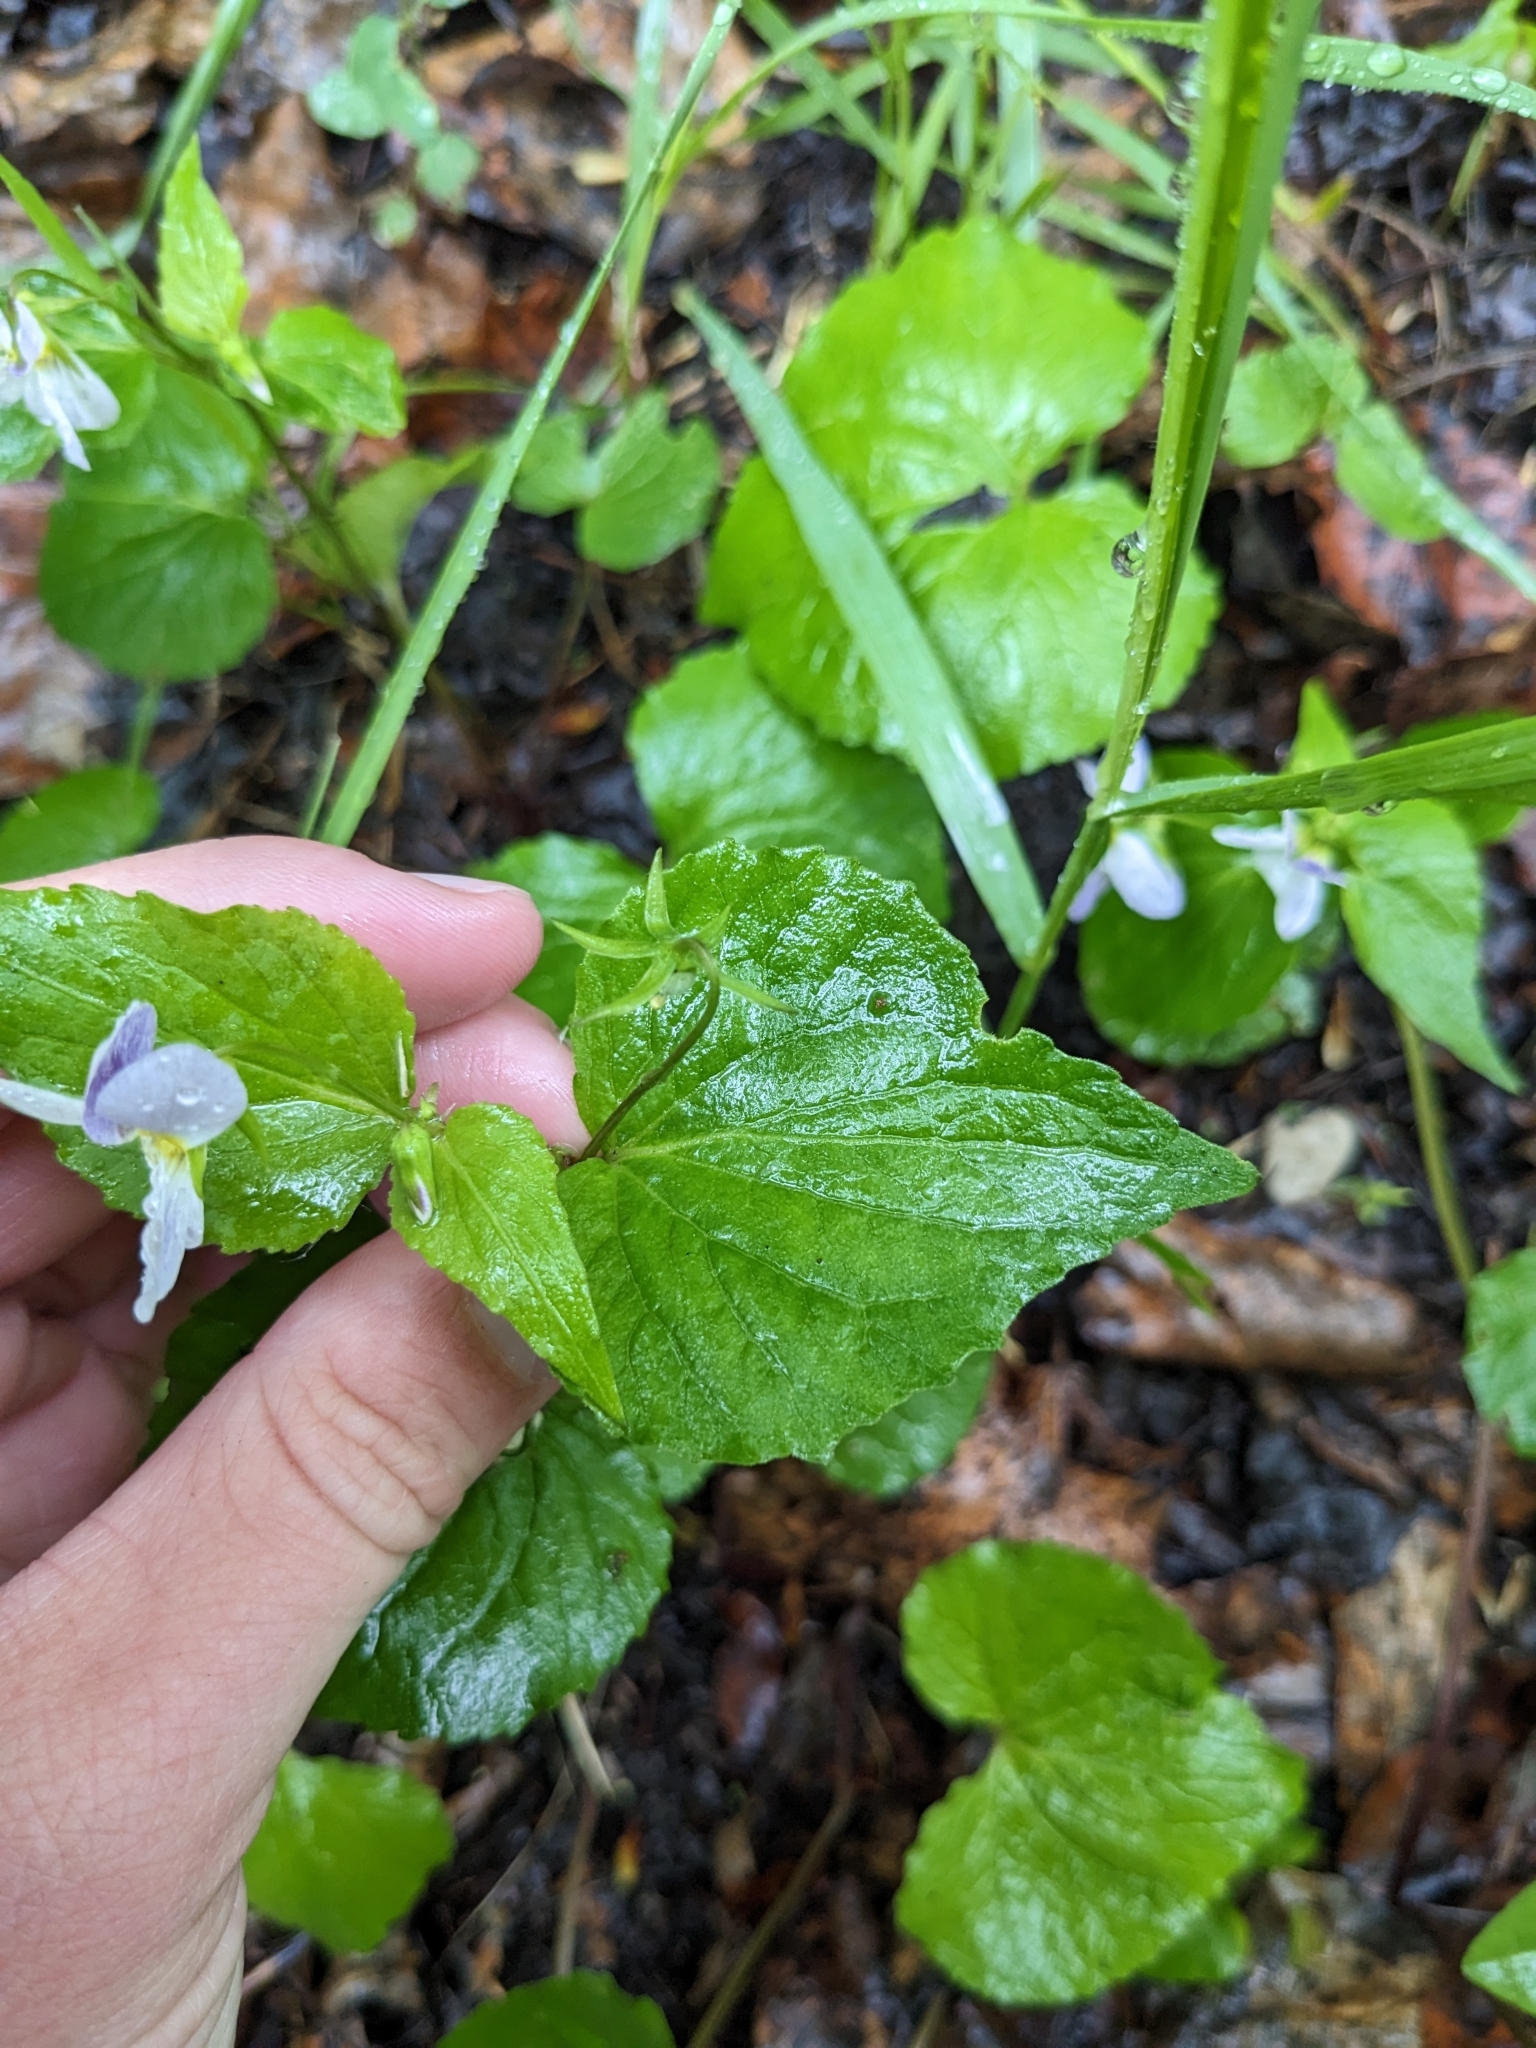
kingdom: Plantae
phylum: Tracheophyta
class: Magnoliopsida
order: Malpighiales
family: Violaceae
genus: Viola
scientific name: Viola canadensis
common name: Canada violet
